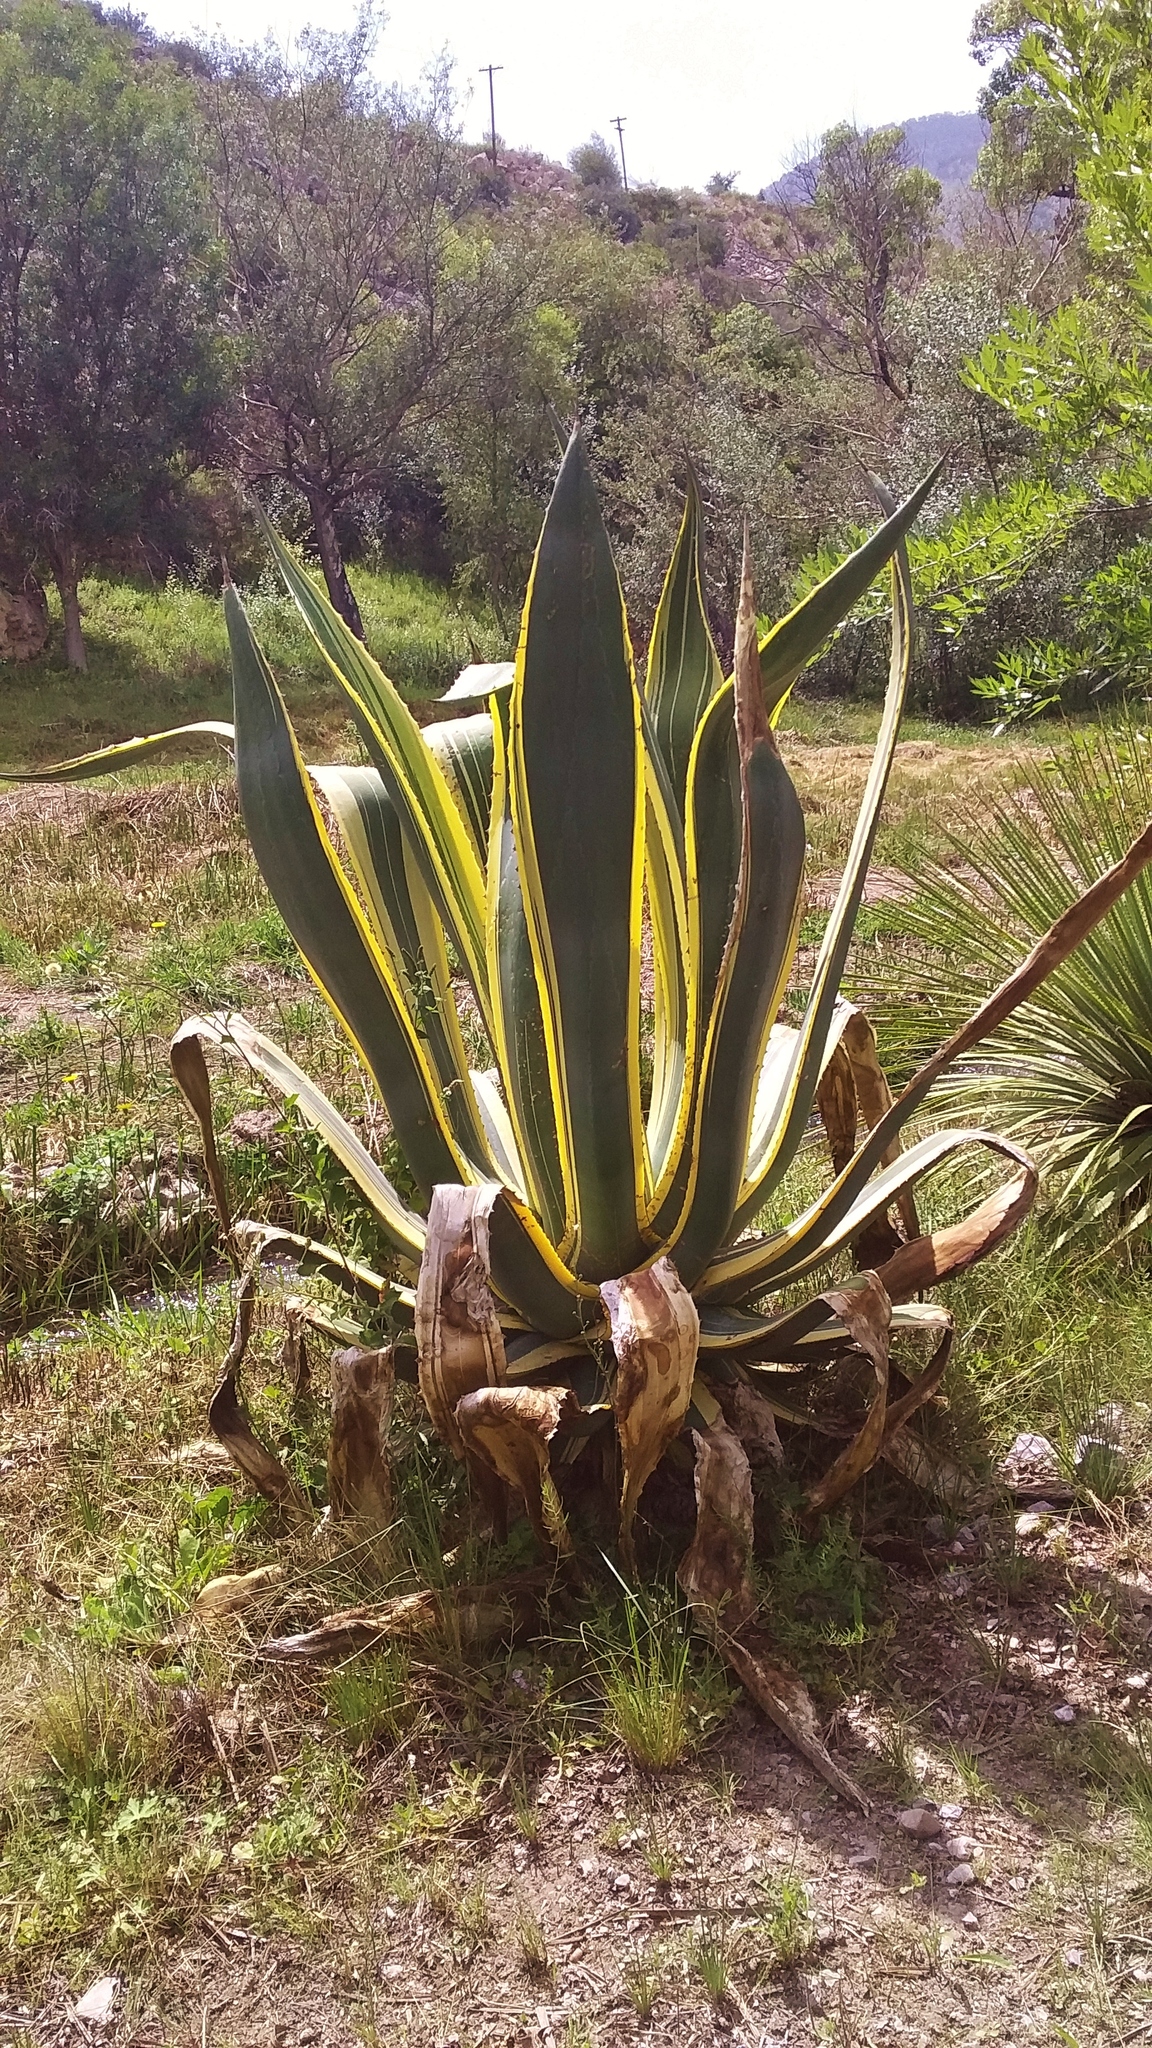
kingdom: Plantae
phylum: Tracheophyta
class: Liliopsida
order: Asparagales
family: Asparagaceae
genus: Agave
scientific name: Agave americana
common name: Centuryplant
